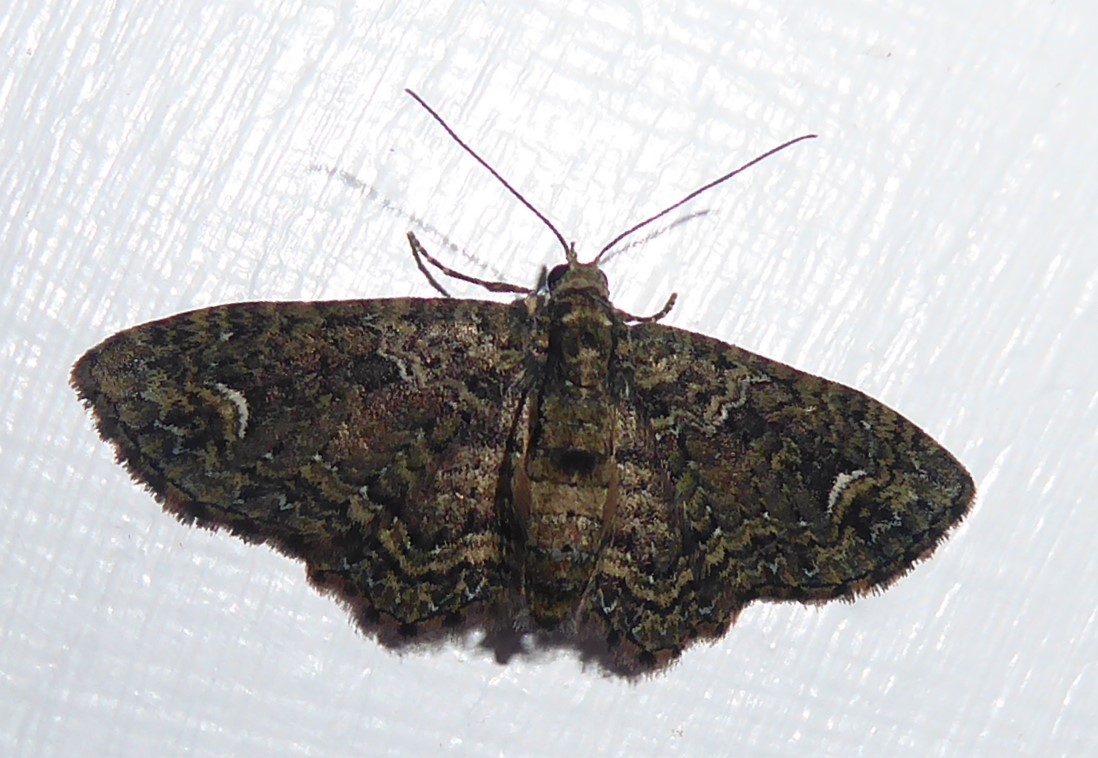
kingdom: Animalia
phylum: Arthropoda
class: Insecta
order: Lepidoptera
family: Geometridae
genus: Pasiphilodes
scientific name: Pasiphilodes testulata
